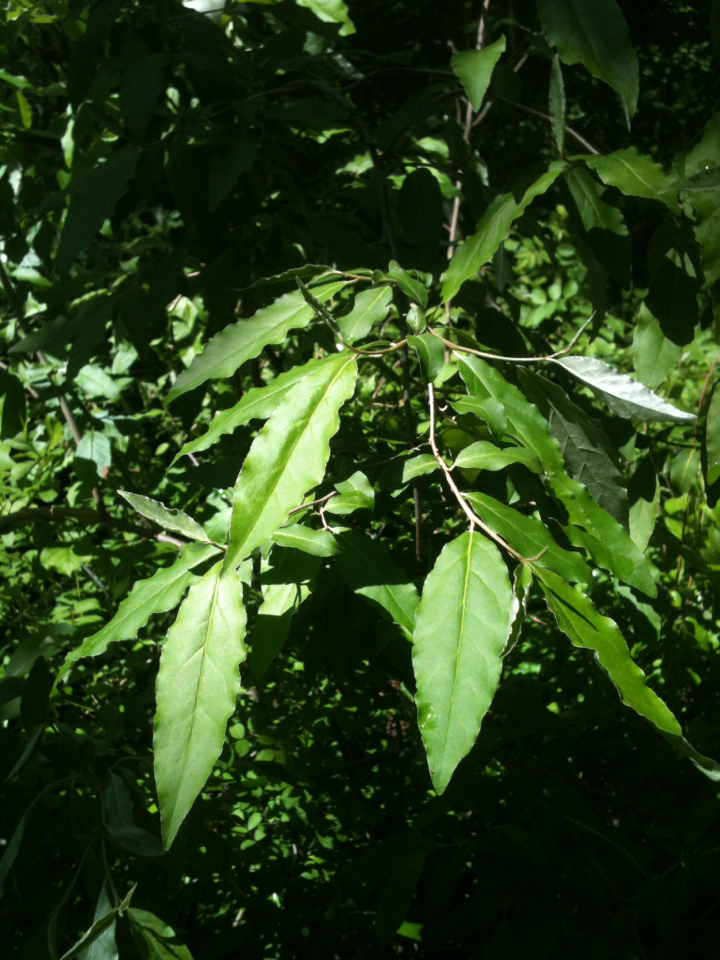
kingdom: Plantae
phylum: Tracheophyta
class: Magnoliopsida
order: Rosales
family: Elaeagnaceae
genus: Elaeagnus
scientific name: Elaeagnus umbellata
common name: Autumn olive
